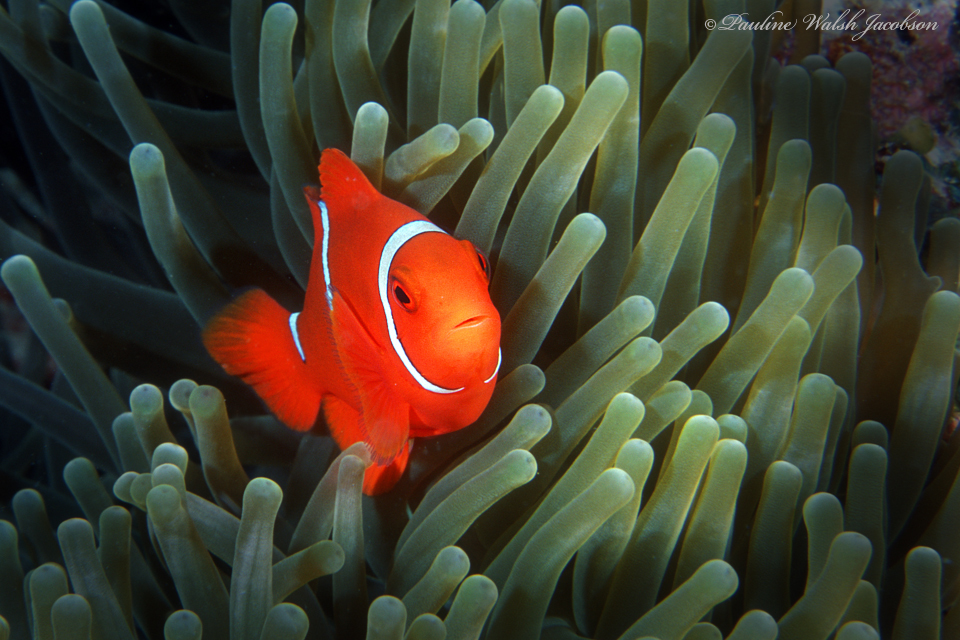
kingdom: Animalia
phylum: Chordata
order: Perciformes
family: Pomacentridae
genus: Premnas
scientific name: Premnas biaculeatus
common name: Spinecheek anemonefish
